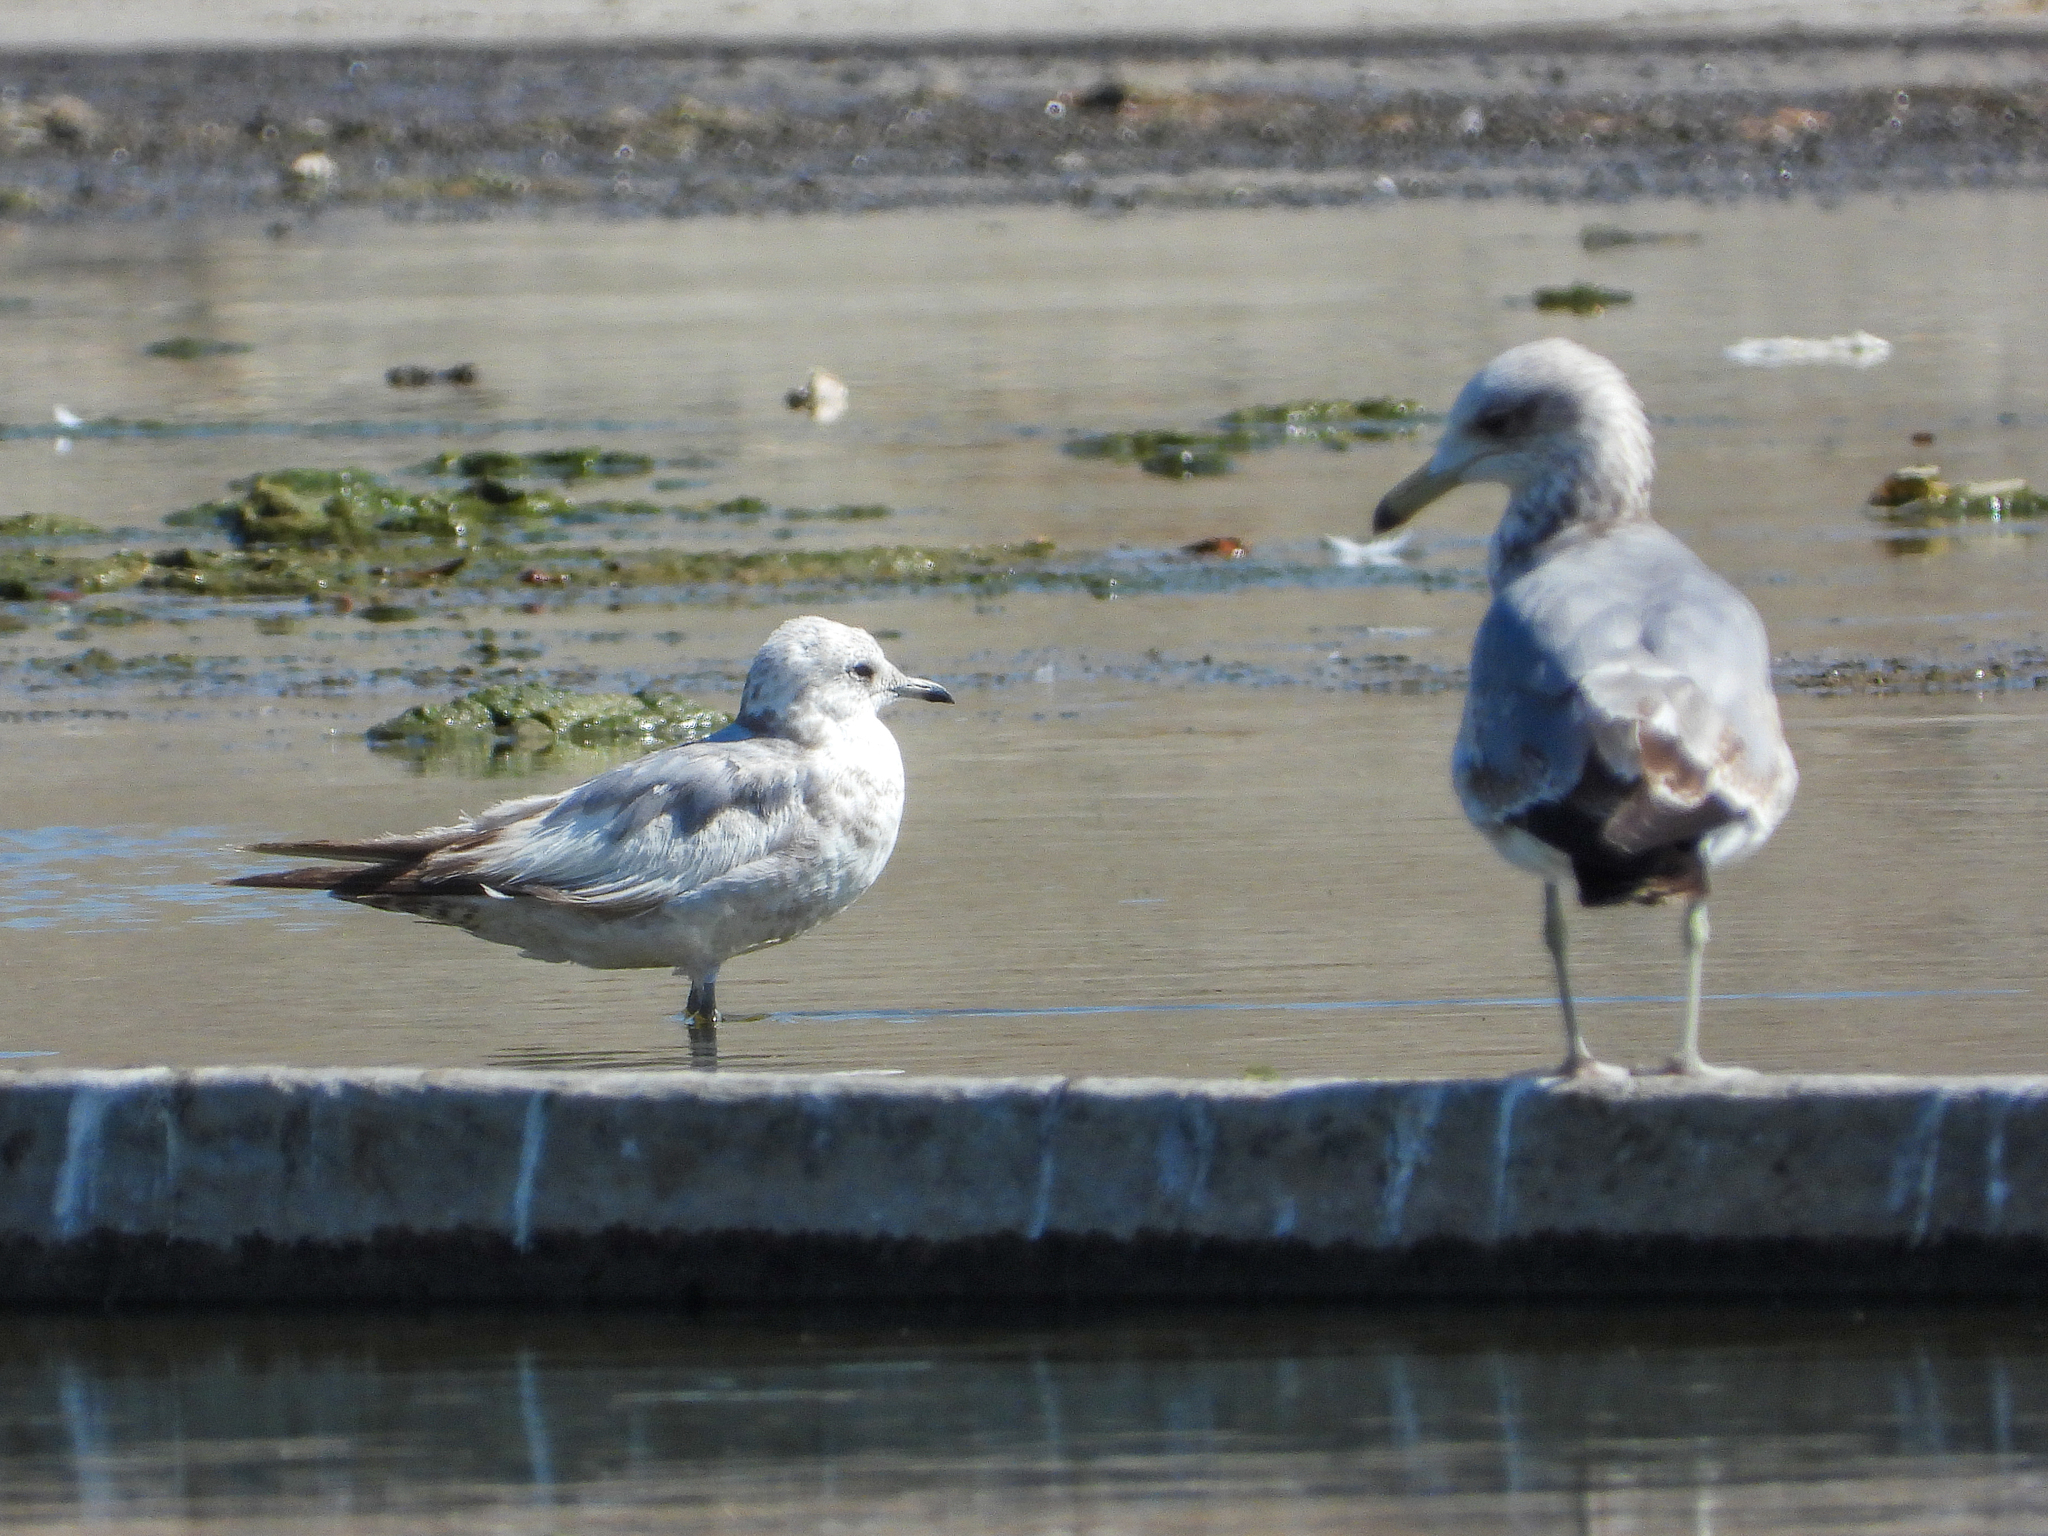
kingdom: Animalia
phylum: Chordata
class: Aves
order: Charadriiformes
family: Laridae
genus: Larus
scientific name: Larus brachyrhynchus
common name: Short-billed gull
